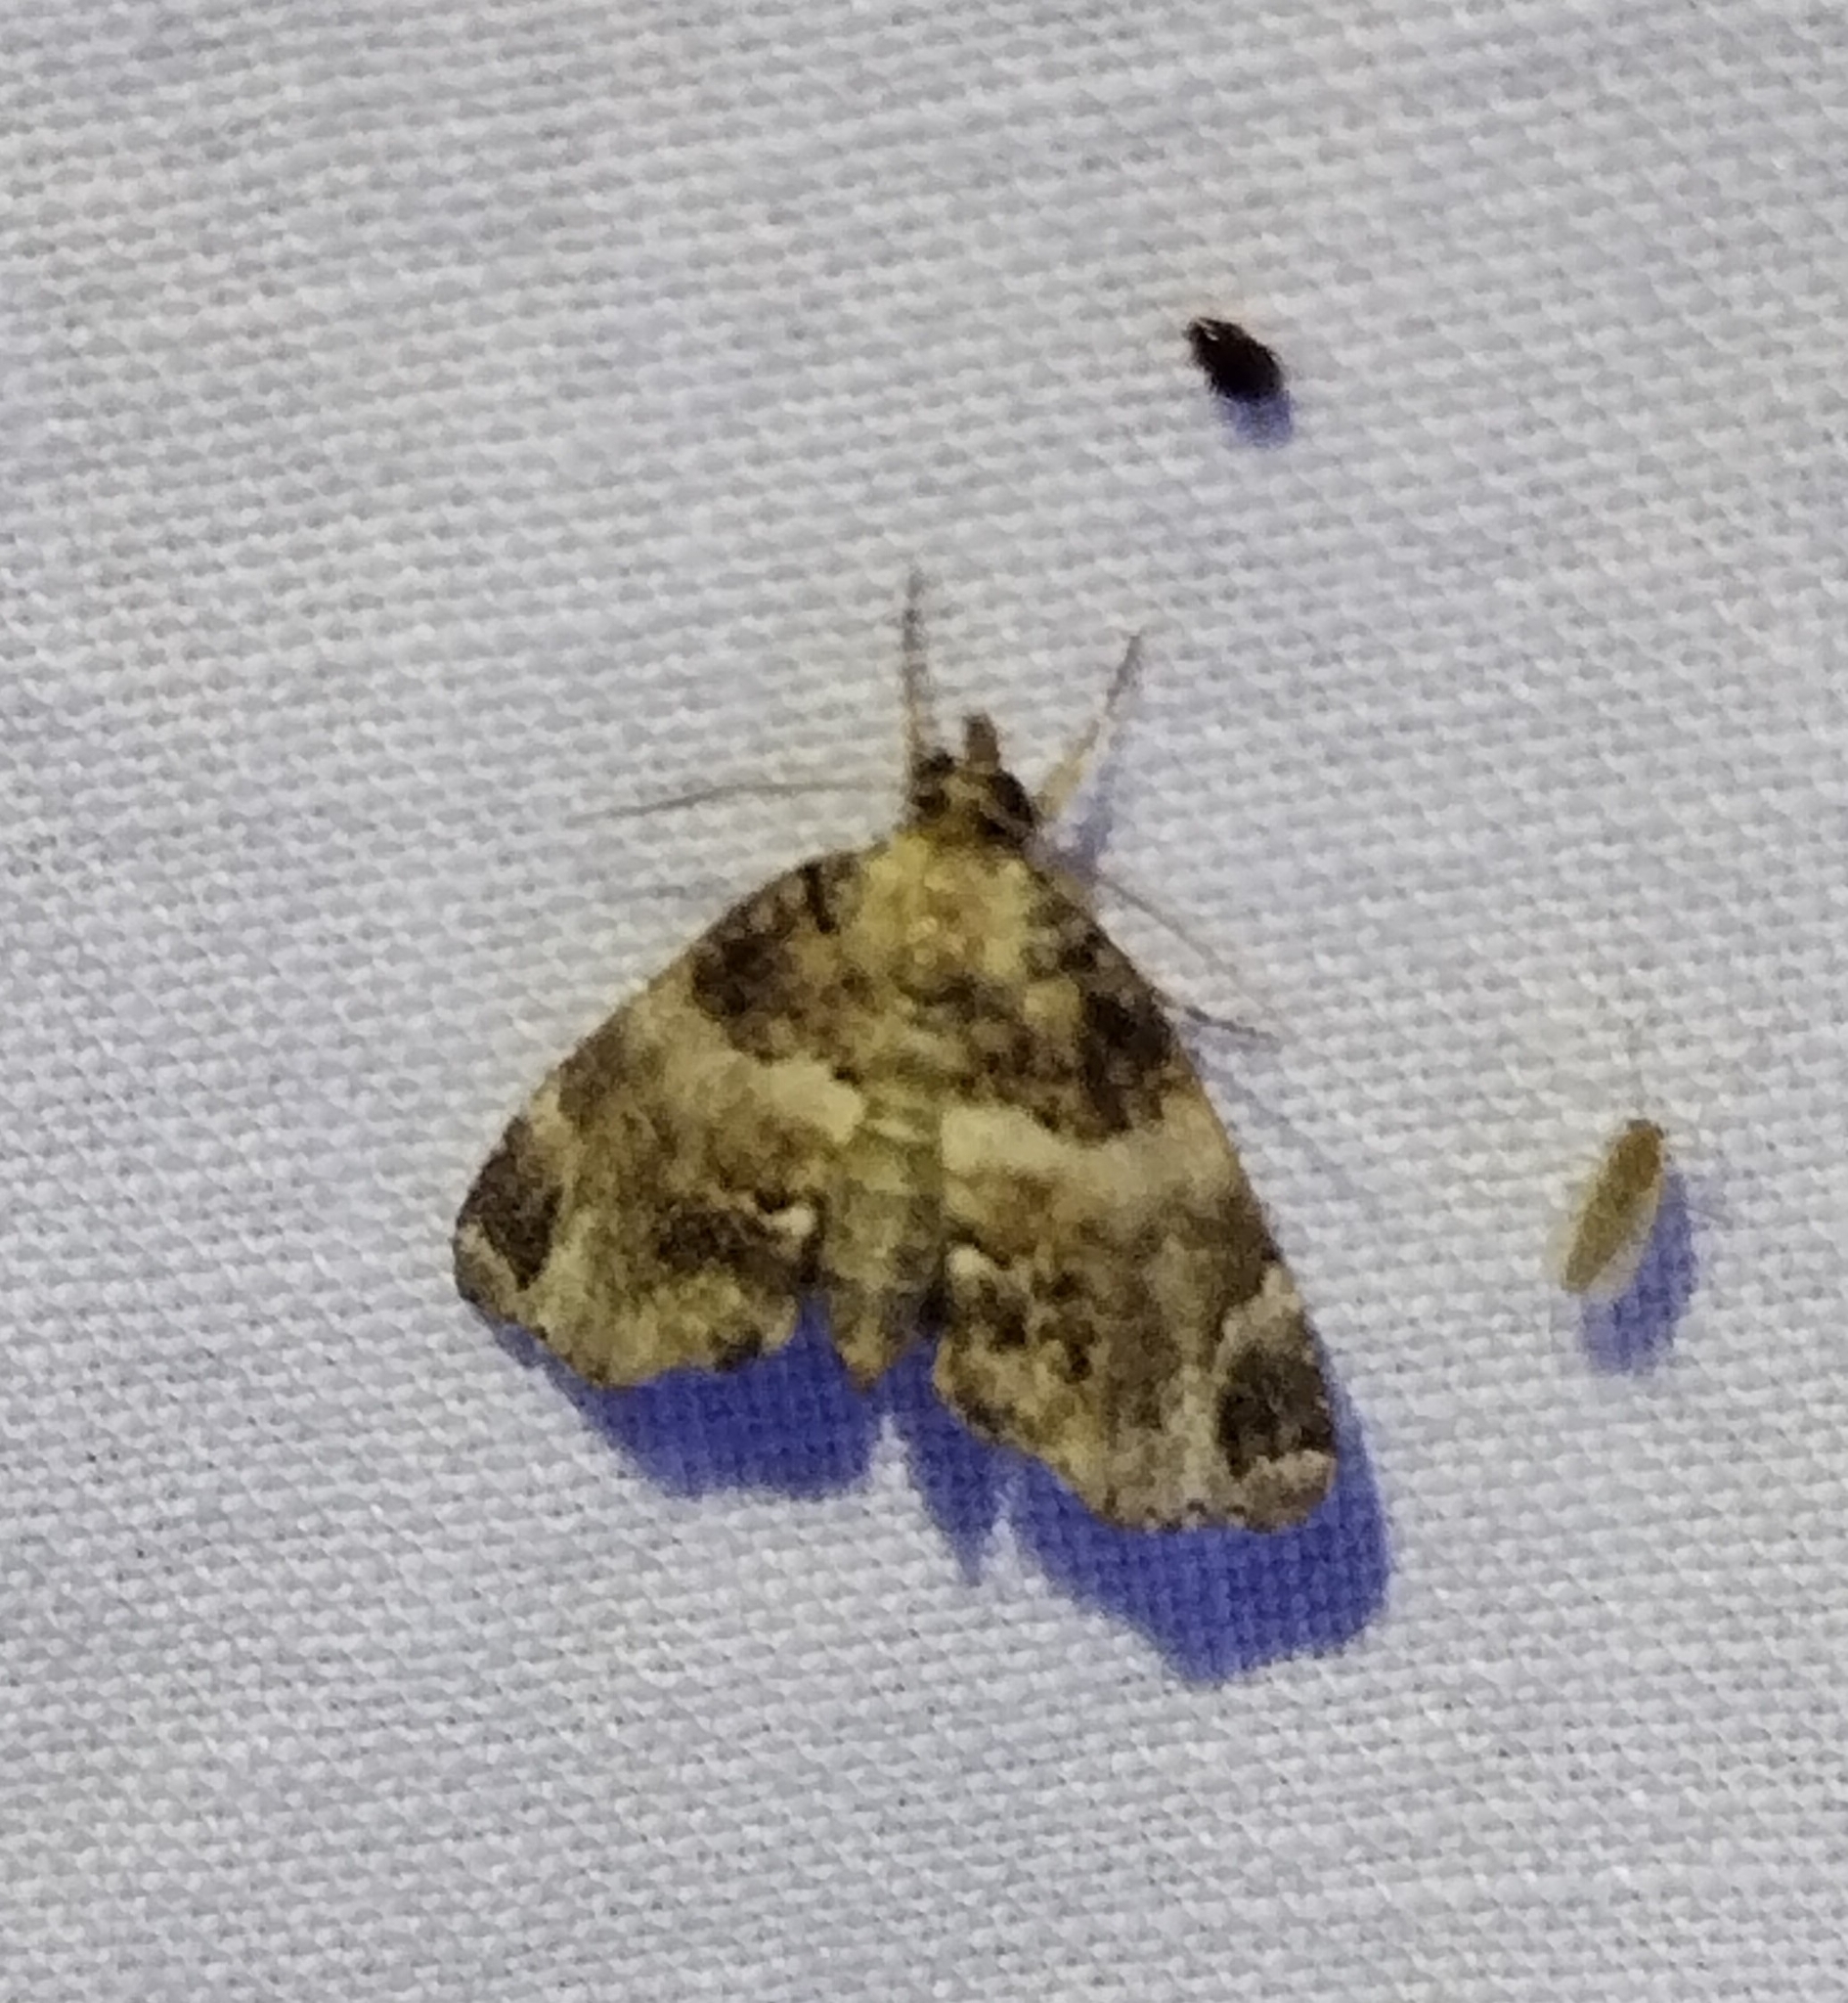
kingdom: Animalia
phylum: Arthropoda
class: Insecta
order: Lepidoptera
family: Erebidae
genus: Cutina
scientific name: Cutina distincta
